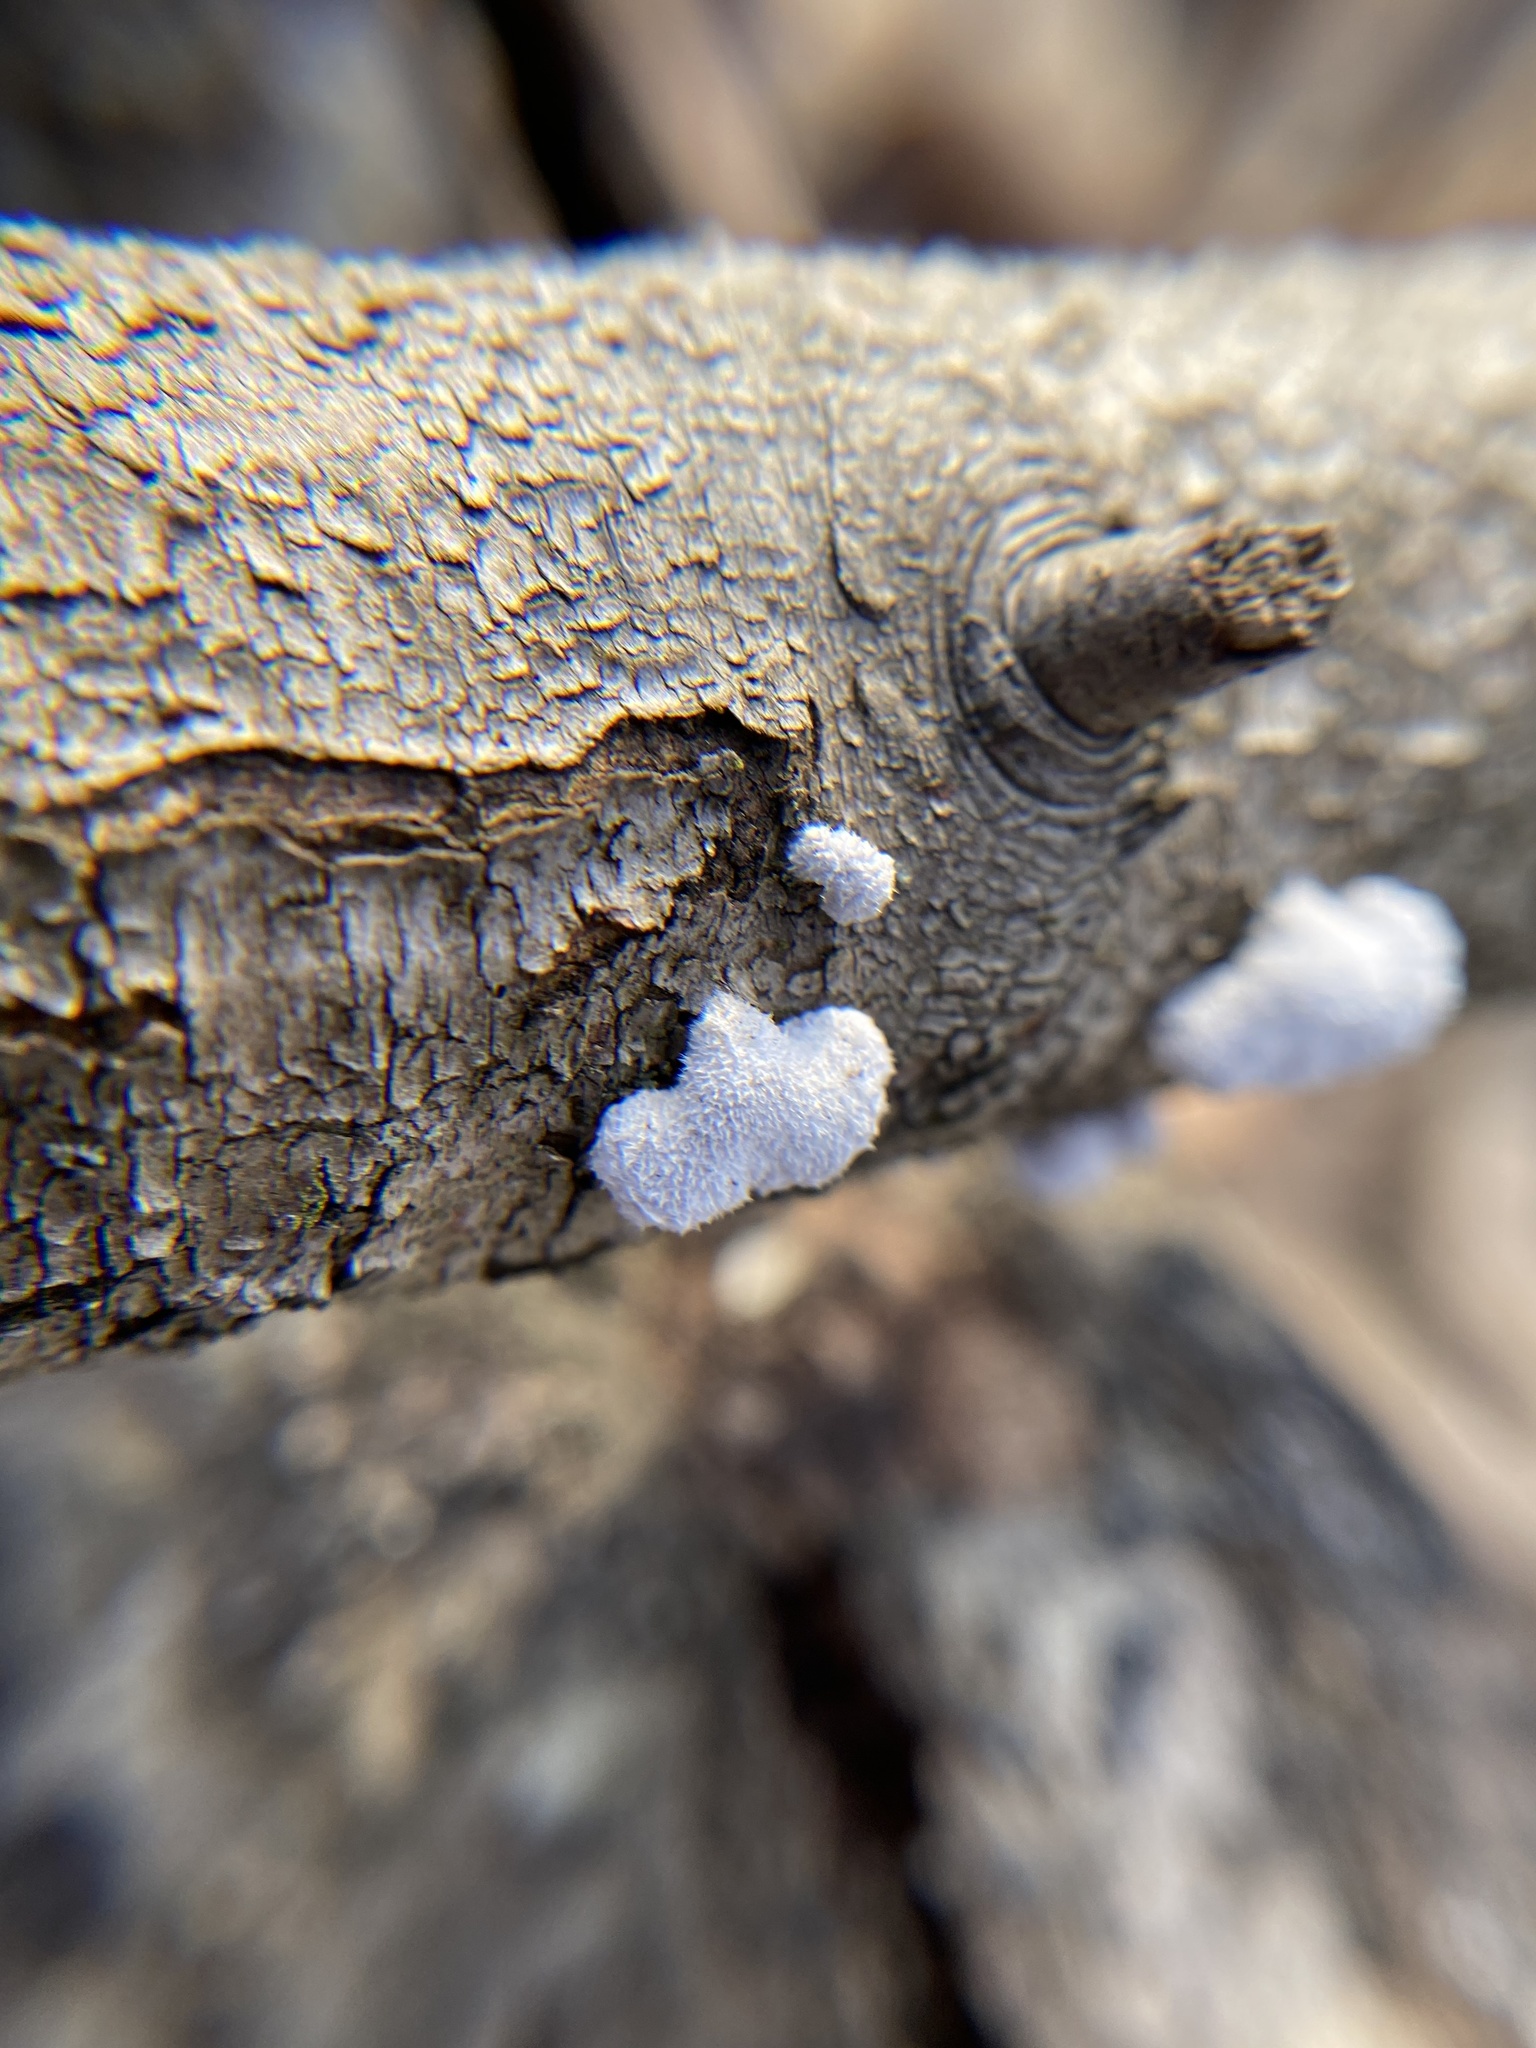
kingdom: Fungi
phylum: Basidiomycota
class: Agaricomycetes
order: Agaricales
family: Schizophyllaceae
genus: Schizophyllum
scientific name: Schizophyllum commune
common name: Common porecrust
